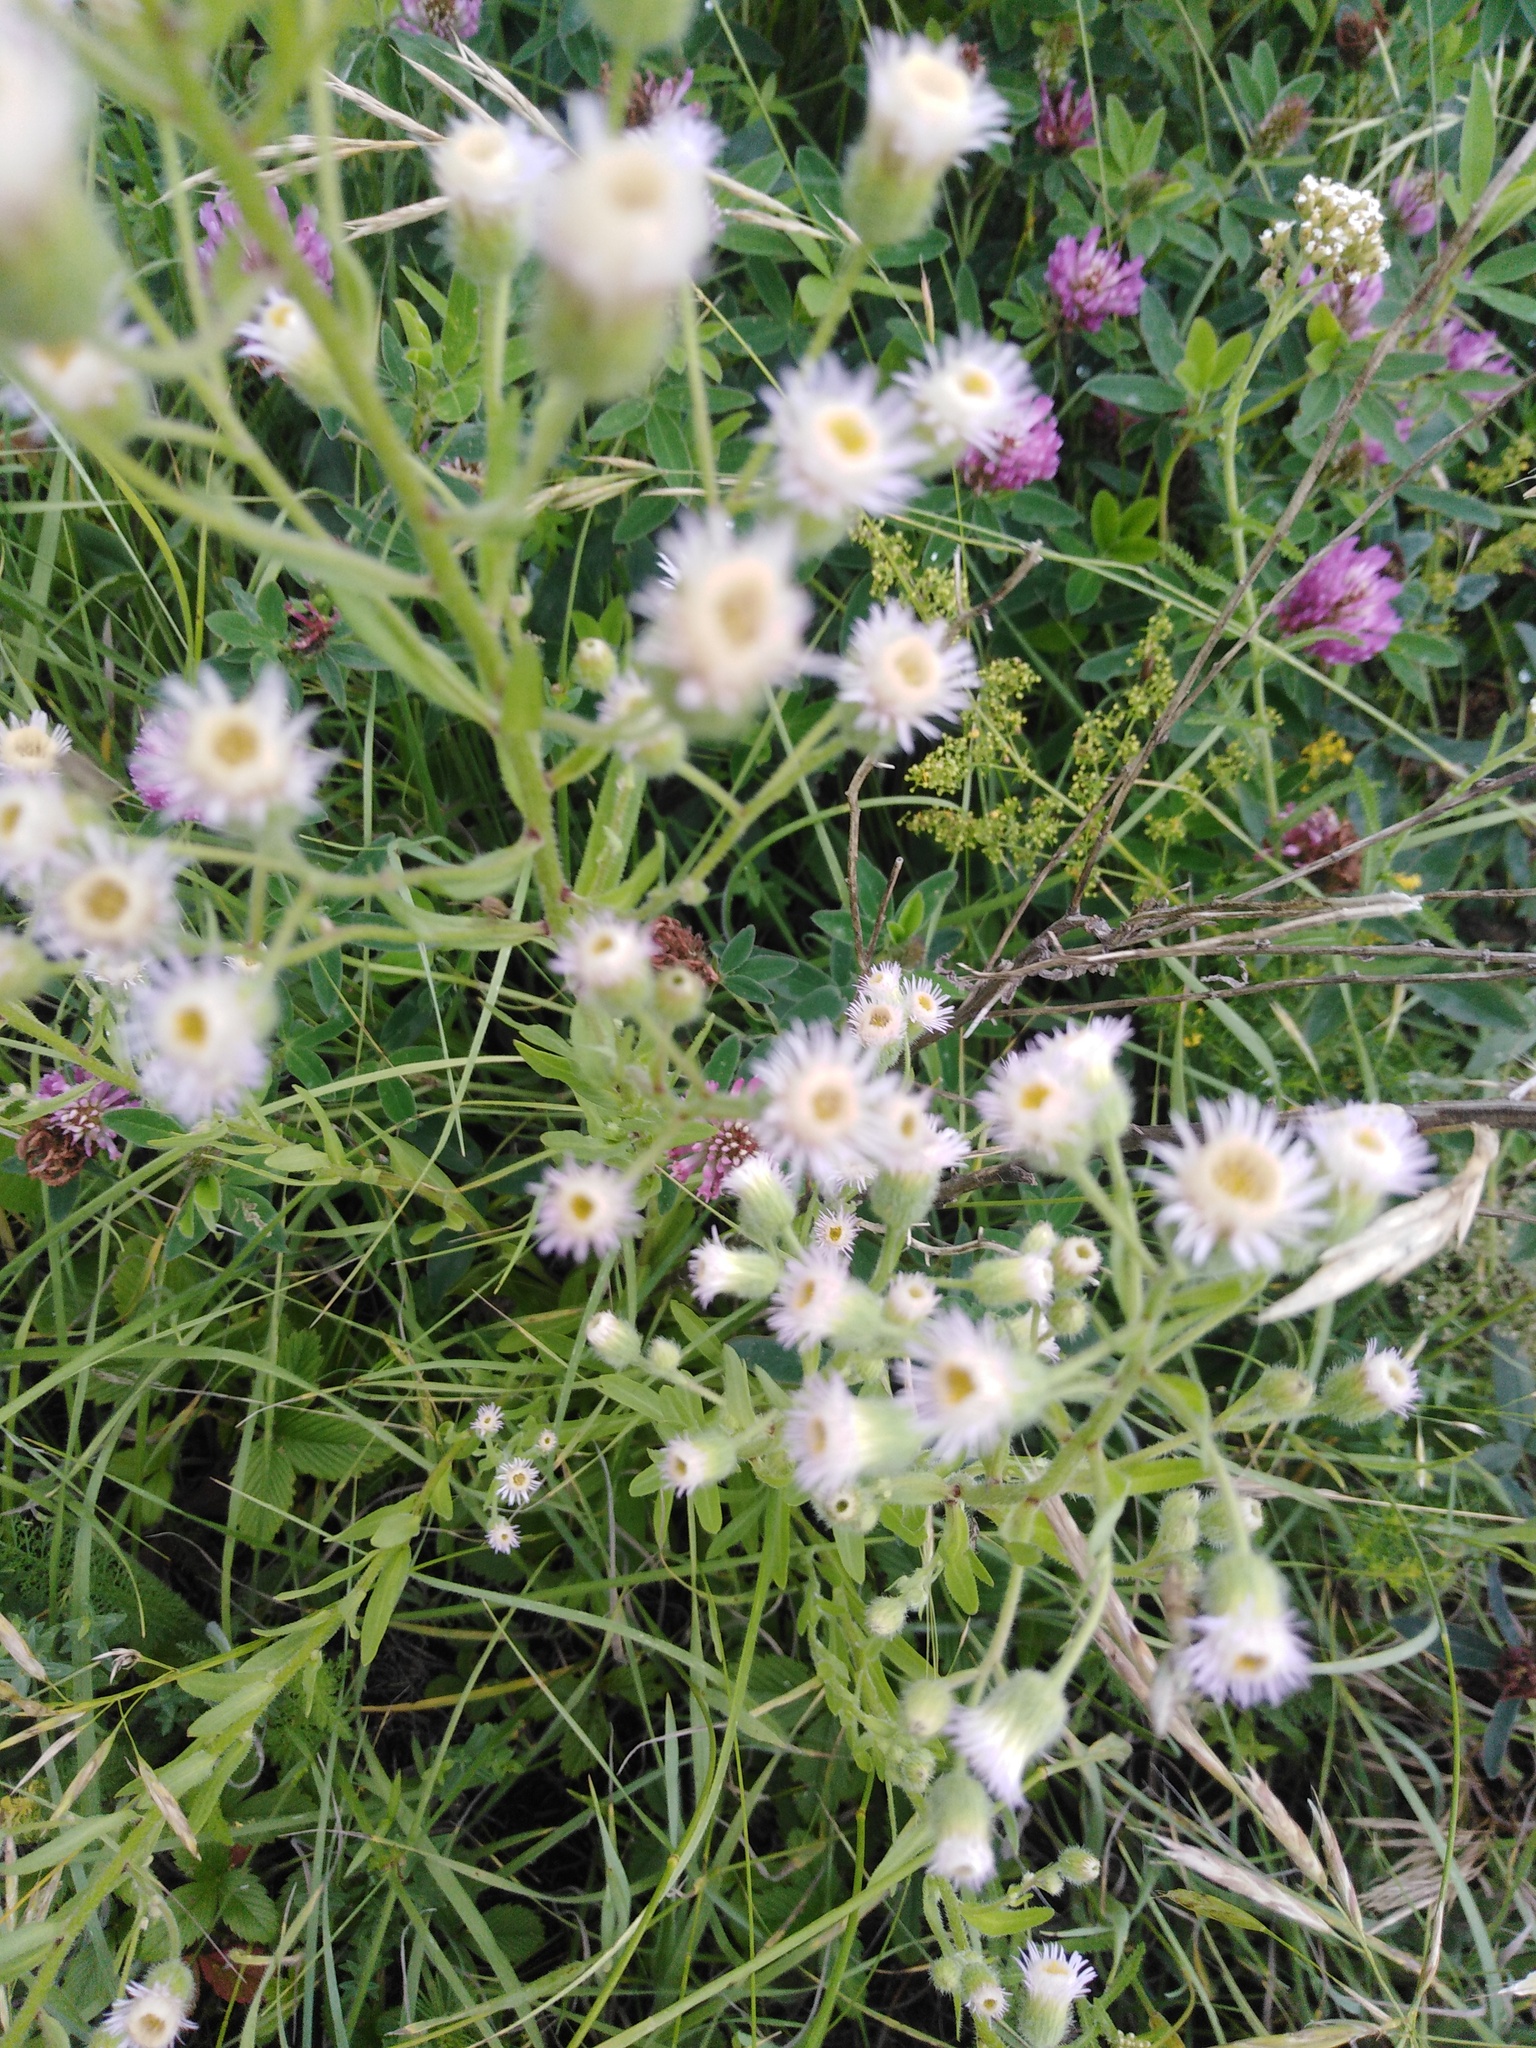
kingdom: Plantae
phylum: Tracheophyta
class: Magnoliopsida
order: Asterales
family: Asteraceae
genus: Erigeron
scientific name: Erigeron acris
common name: Blue fleabane
